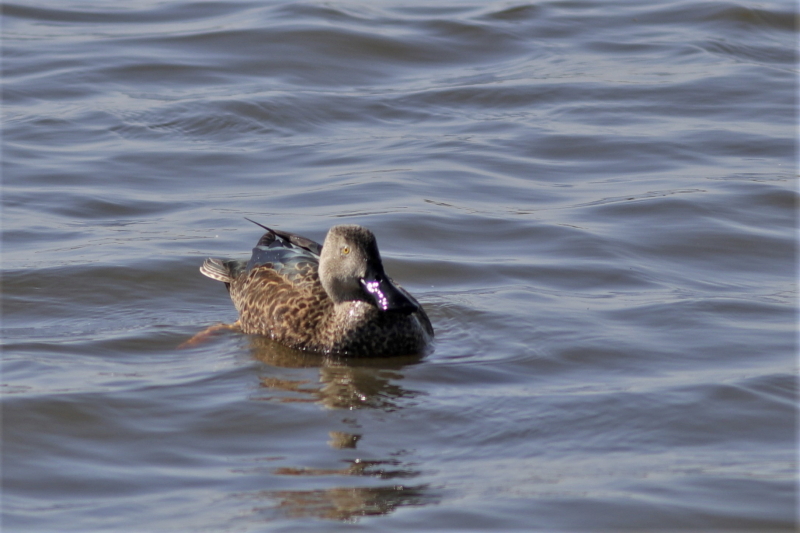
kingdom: Animalia
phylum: Chordata
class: Aves
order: Anseriformes
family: Anatidae
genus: Spatula
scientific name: Spatula smithii
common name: Cape shoveler
